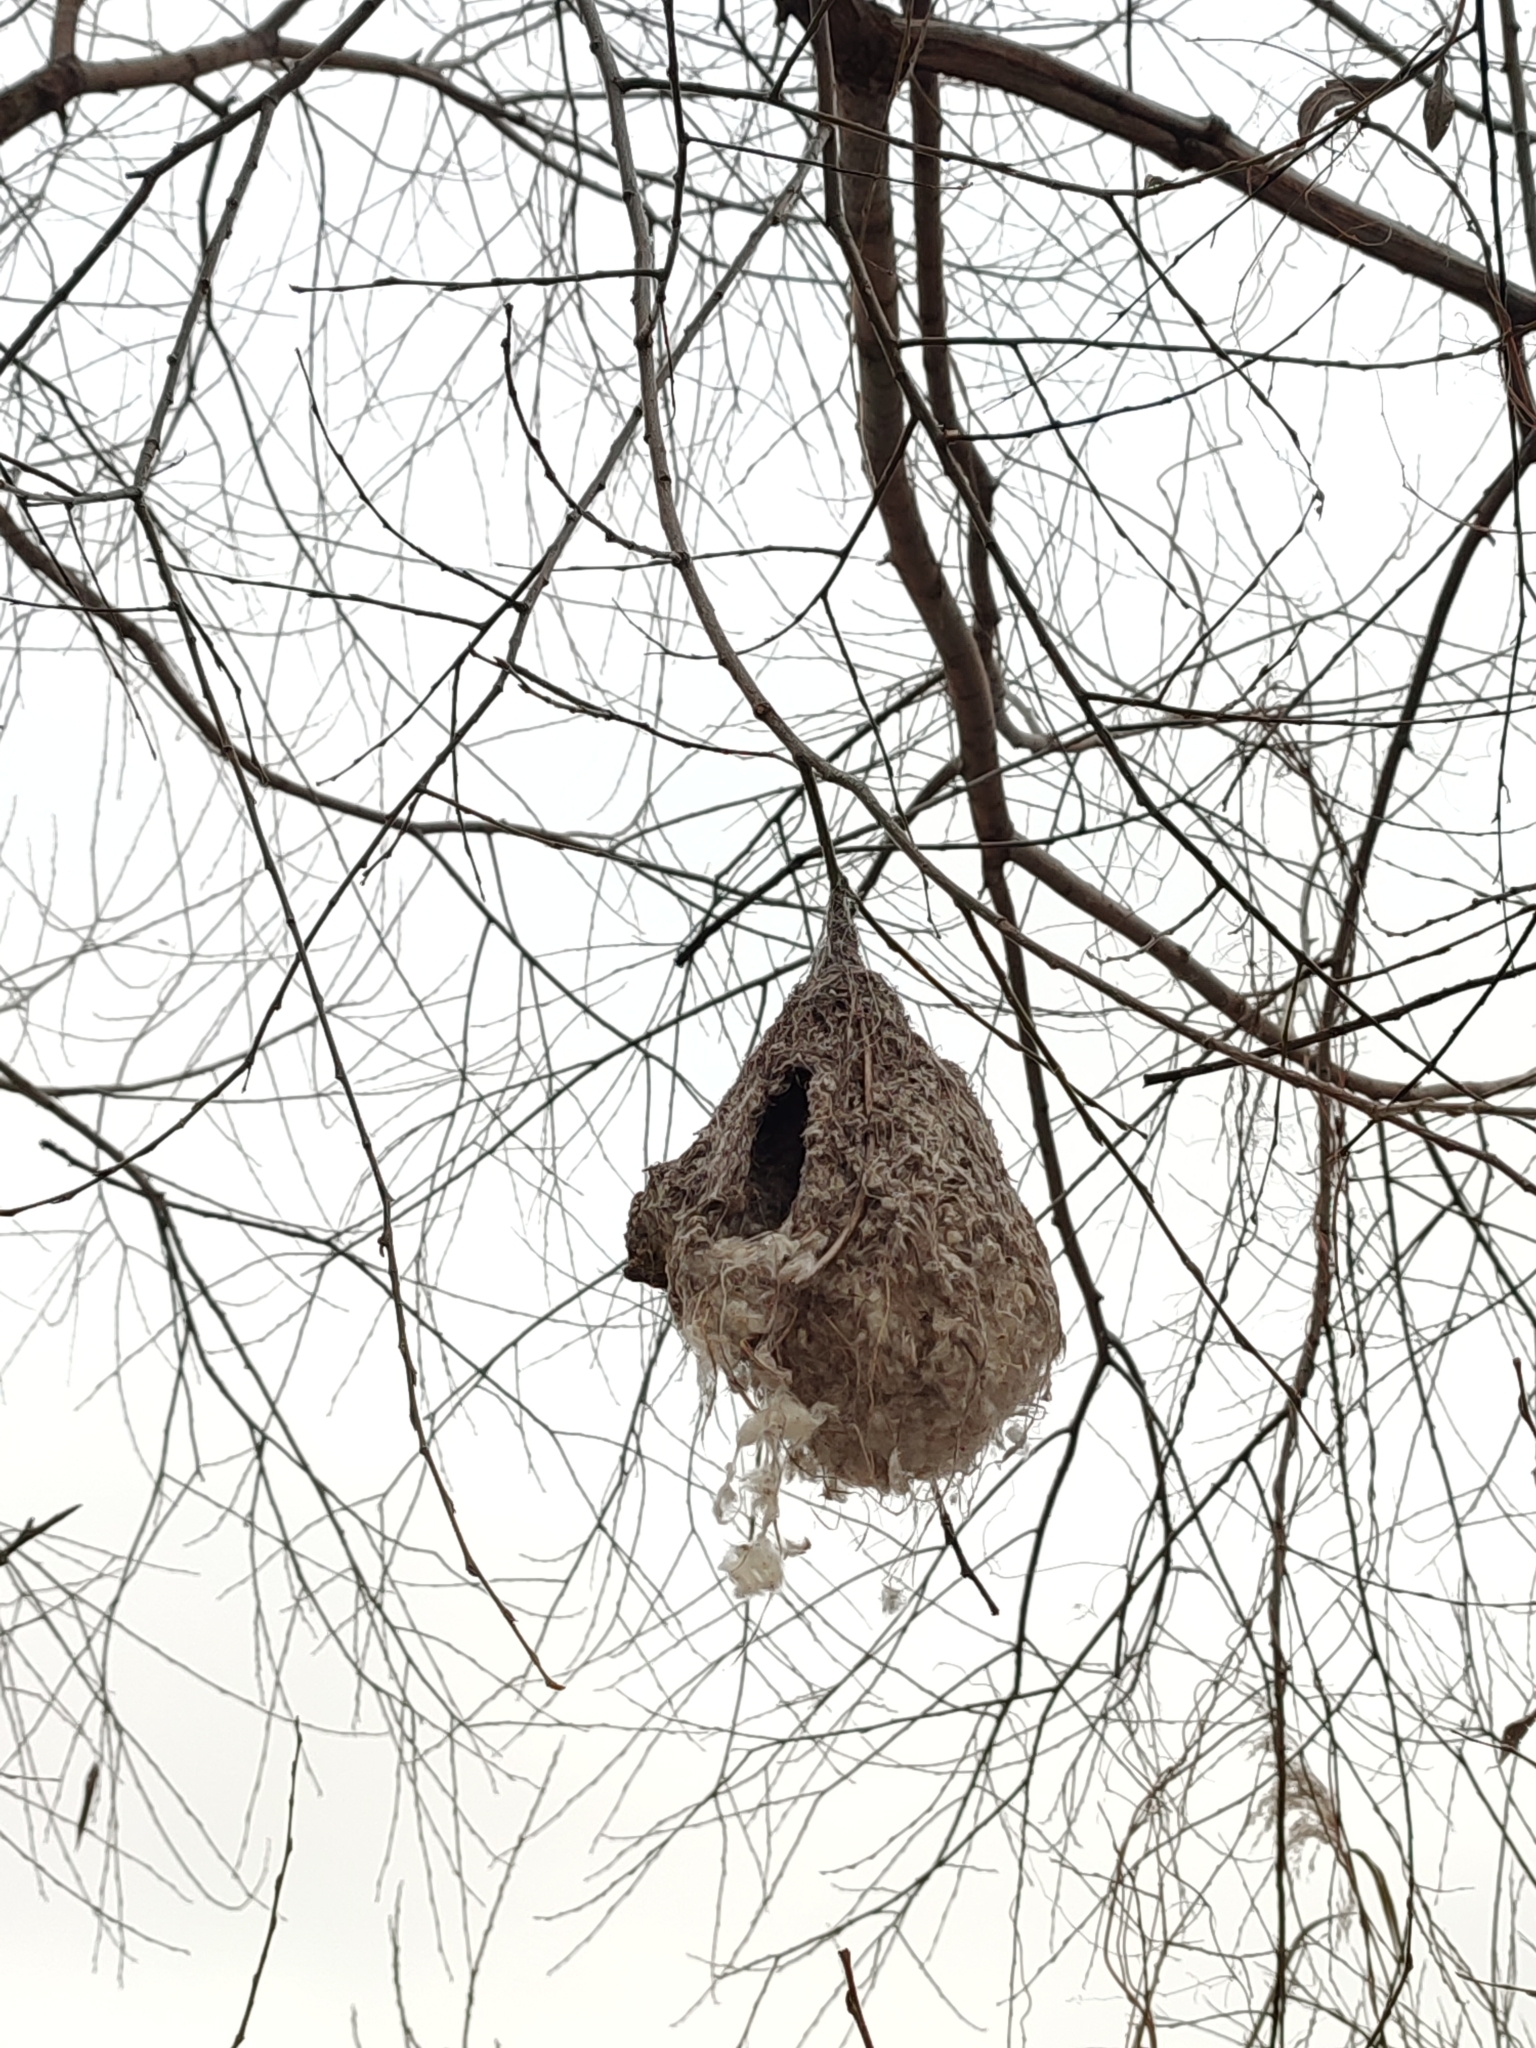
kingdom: Animalia
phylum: Chordata
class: Aves
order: Passeriformes
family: Remizidae
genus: Remiz
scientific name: Remiz pendulinus
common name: Eurasian penduline tit
